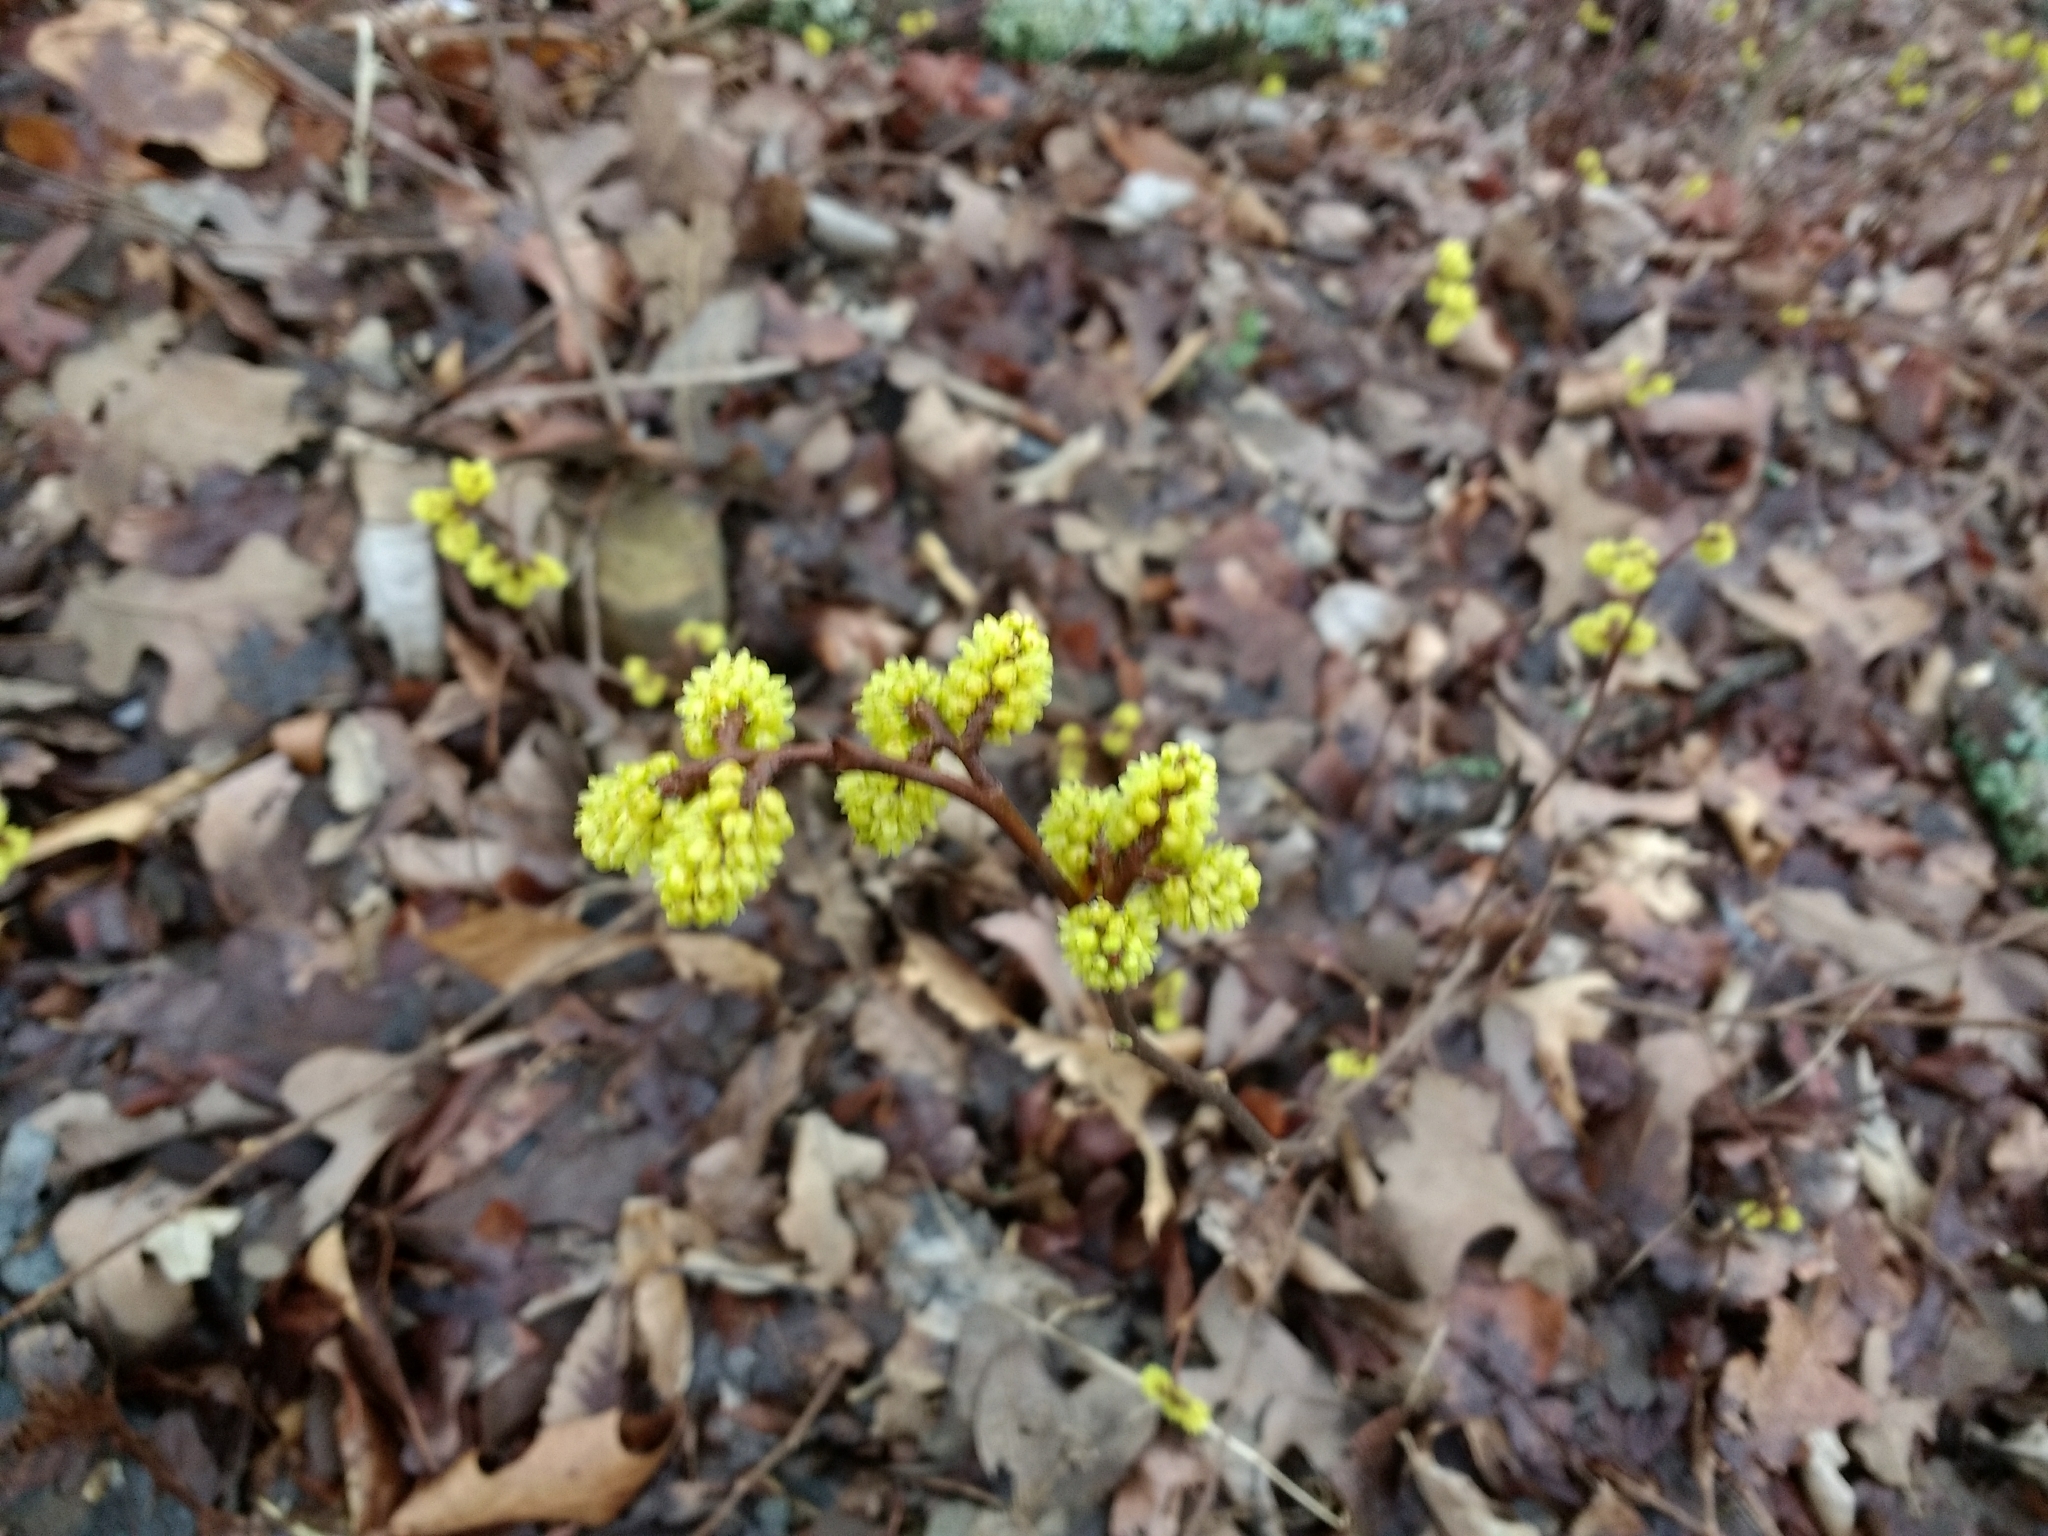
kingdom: Plantae
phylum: Tracheophyta
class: Magnoliopsida
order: Sapindales
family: Anacardiaceae
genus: Rhus
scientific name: Rhus aromatica
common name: Aromatic sumac
